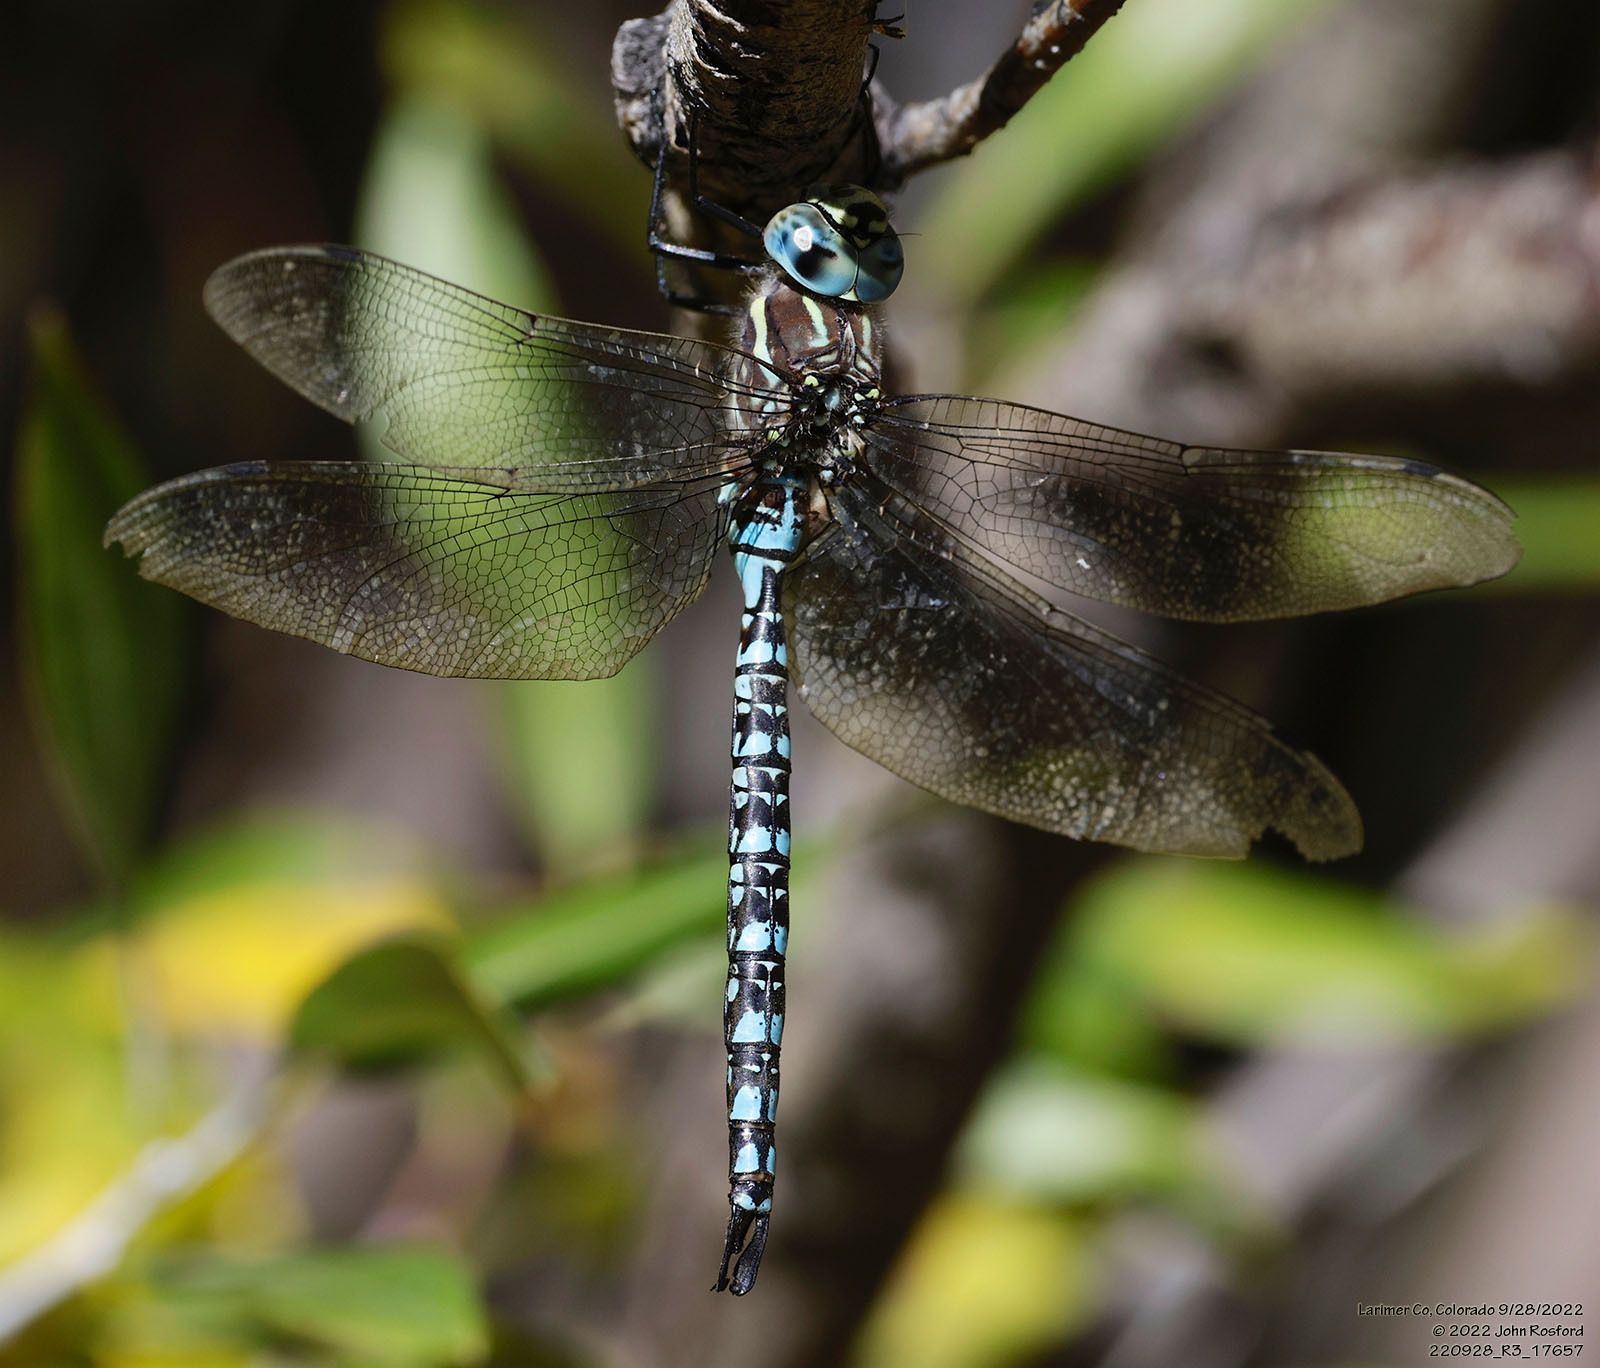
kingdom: Animalia
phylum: Arthropoda
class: Insecta
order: Odonata
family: Aeshnidae
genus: Aeshna
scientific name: Aeshna palmata
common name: Paddle-tailed darner
